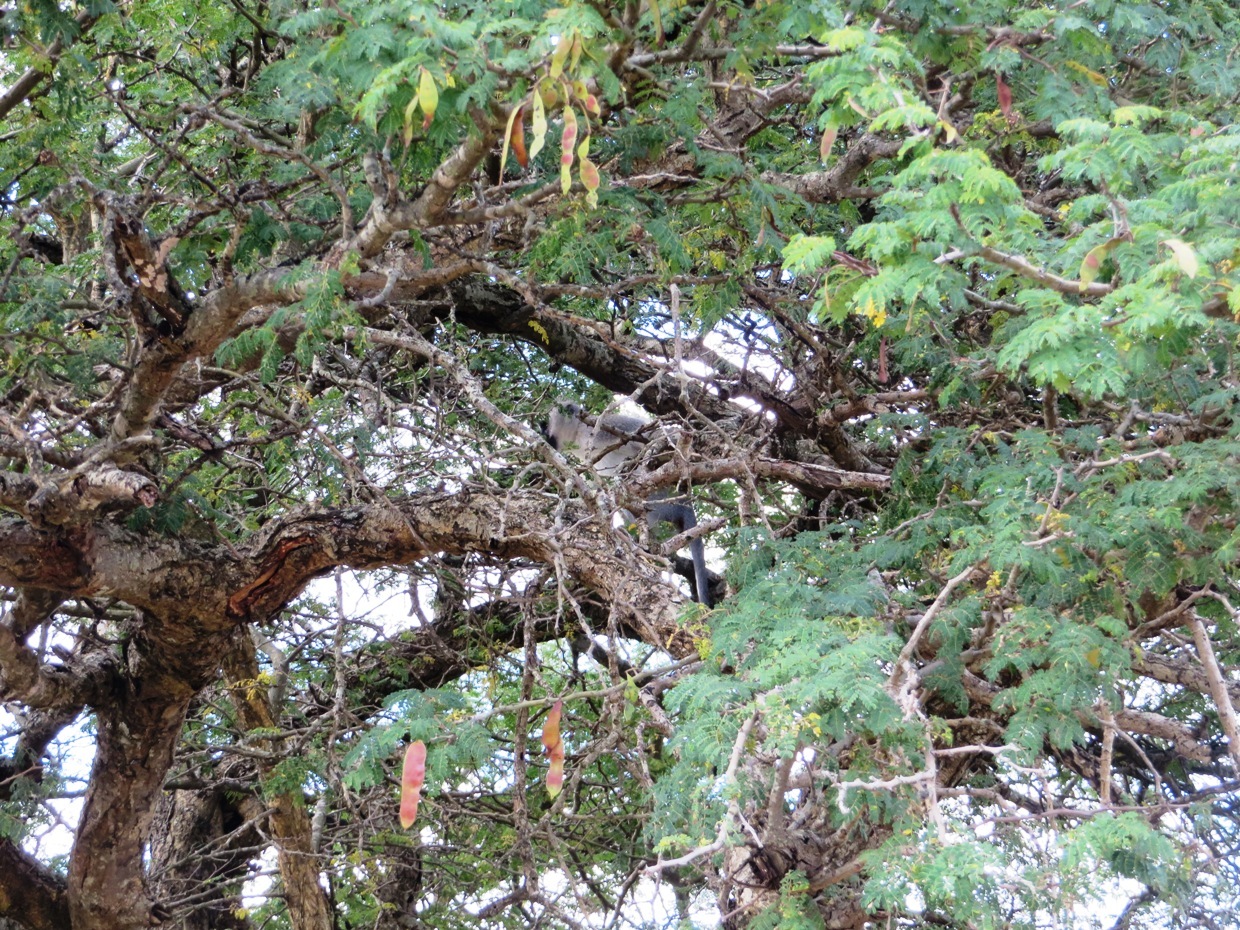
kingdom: Animalia
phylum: Chordata
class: Mammalia
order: Primates
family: Cercopithecidae
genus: Chlorocebus
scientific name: Chlorocebus pygerythrus
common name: Vervet monkey
